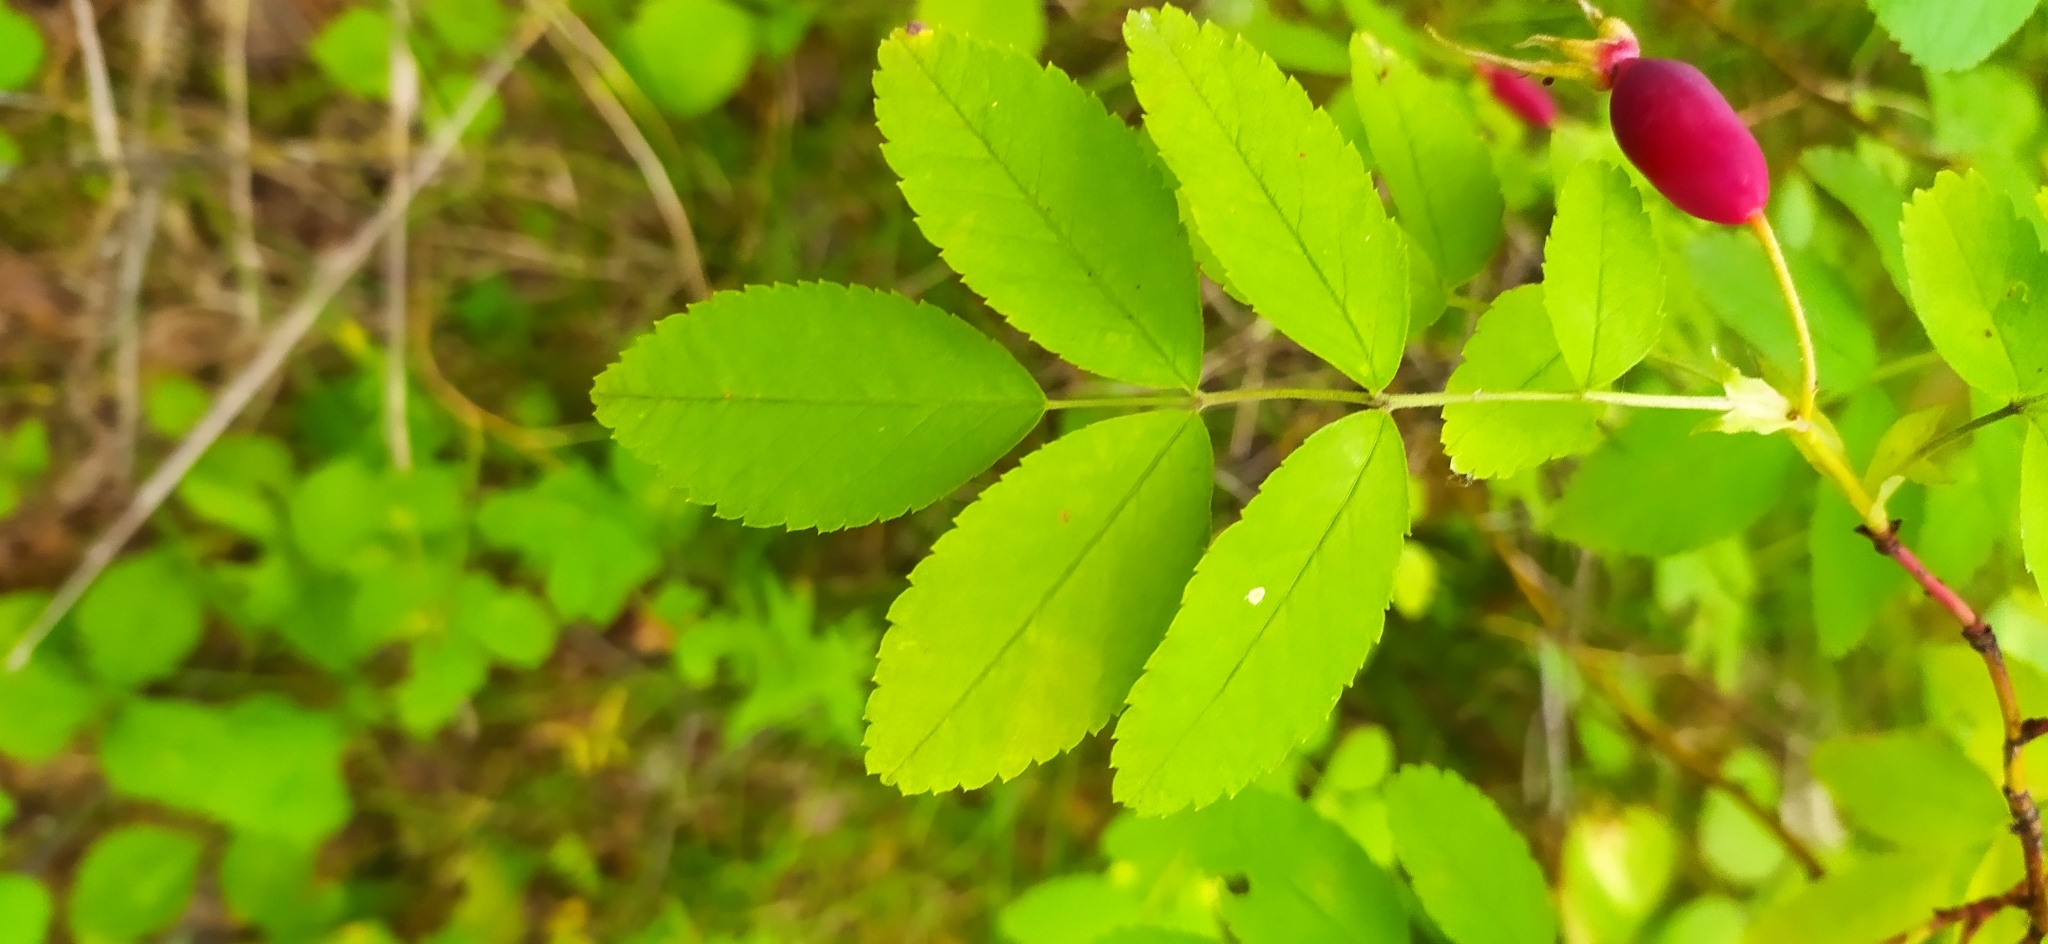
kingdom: Plantae
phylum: Tracheophyta
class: Magnoliopsida
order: Rosales
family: Rosaceae
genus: Rosa
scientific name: Rosa glabrifolia
